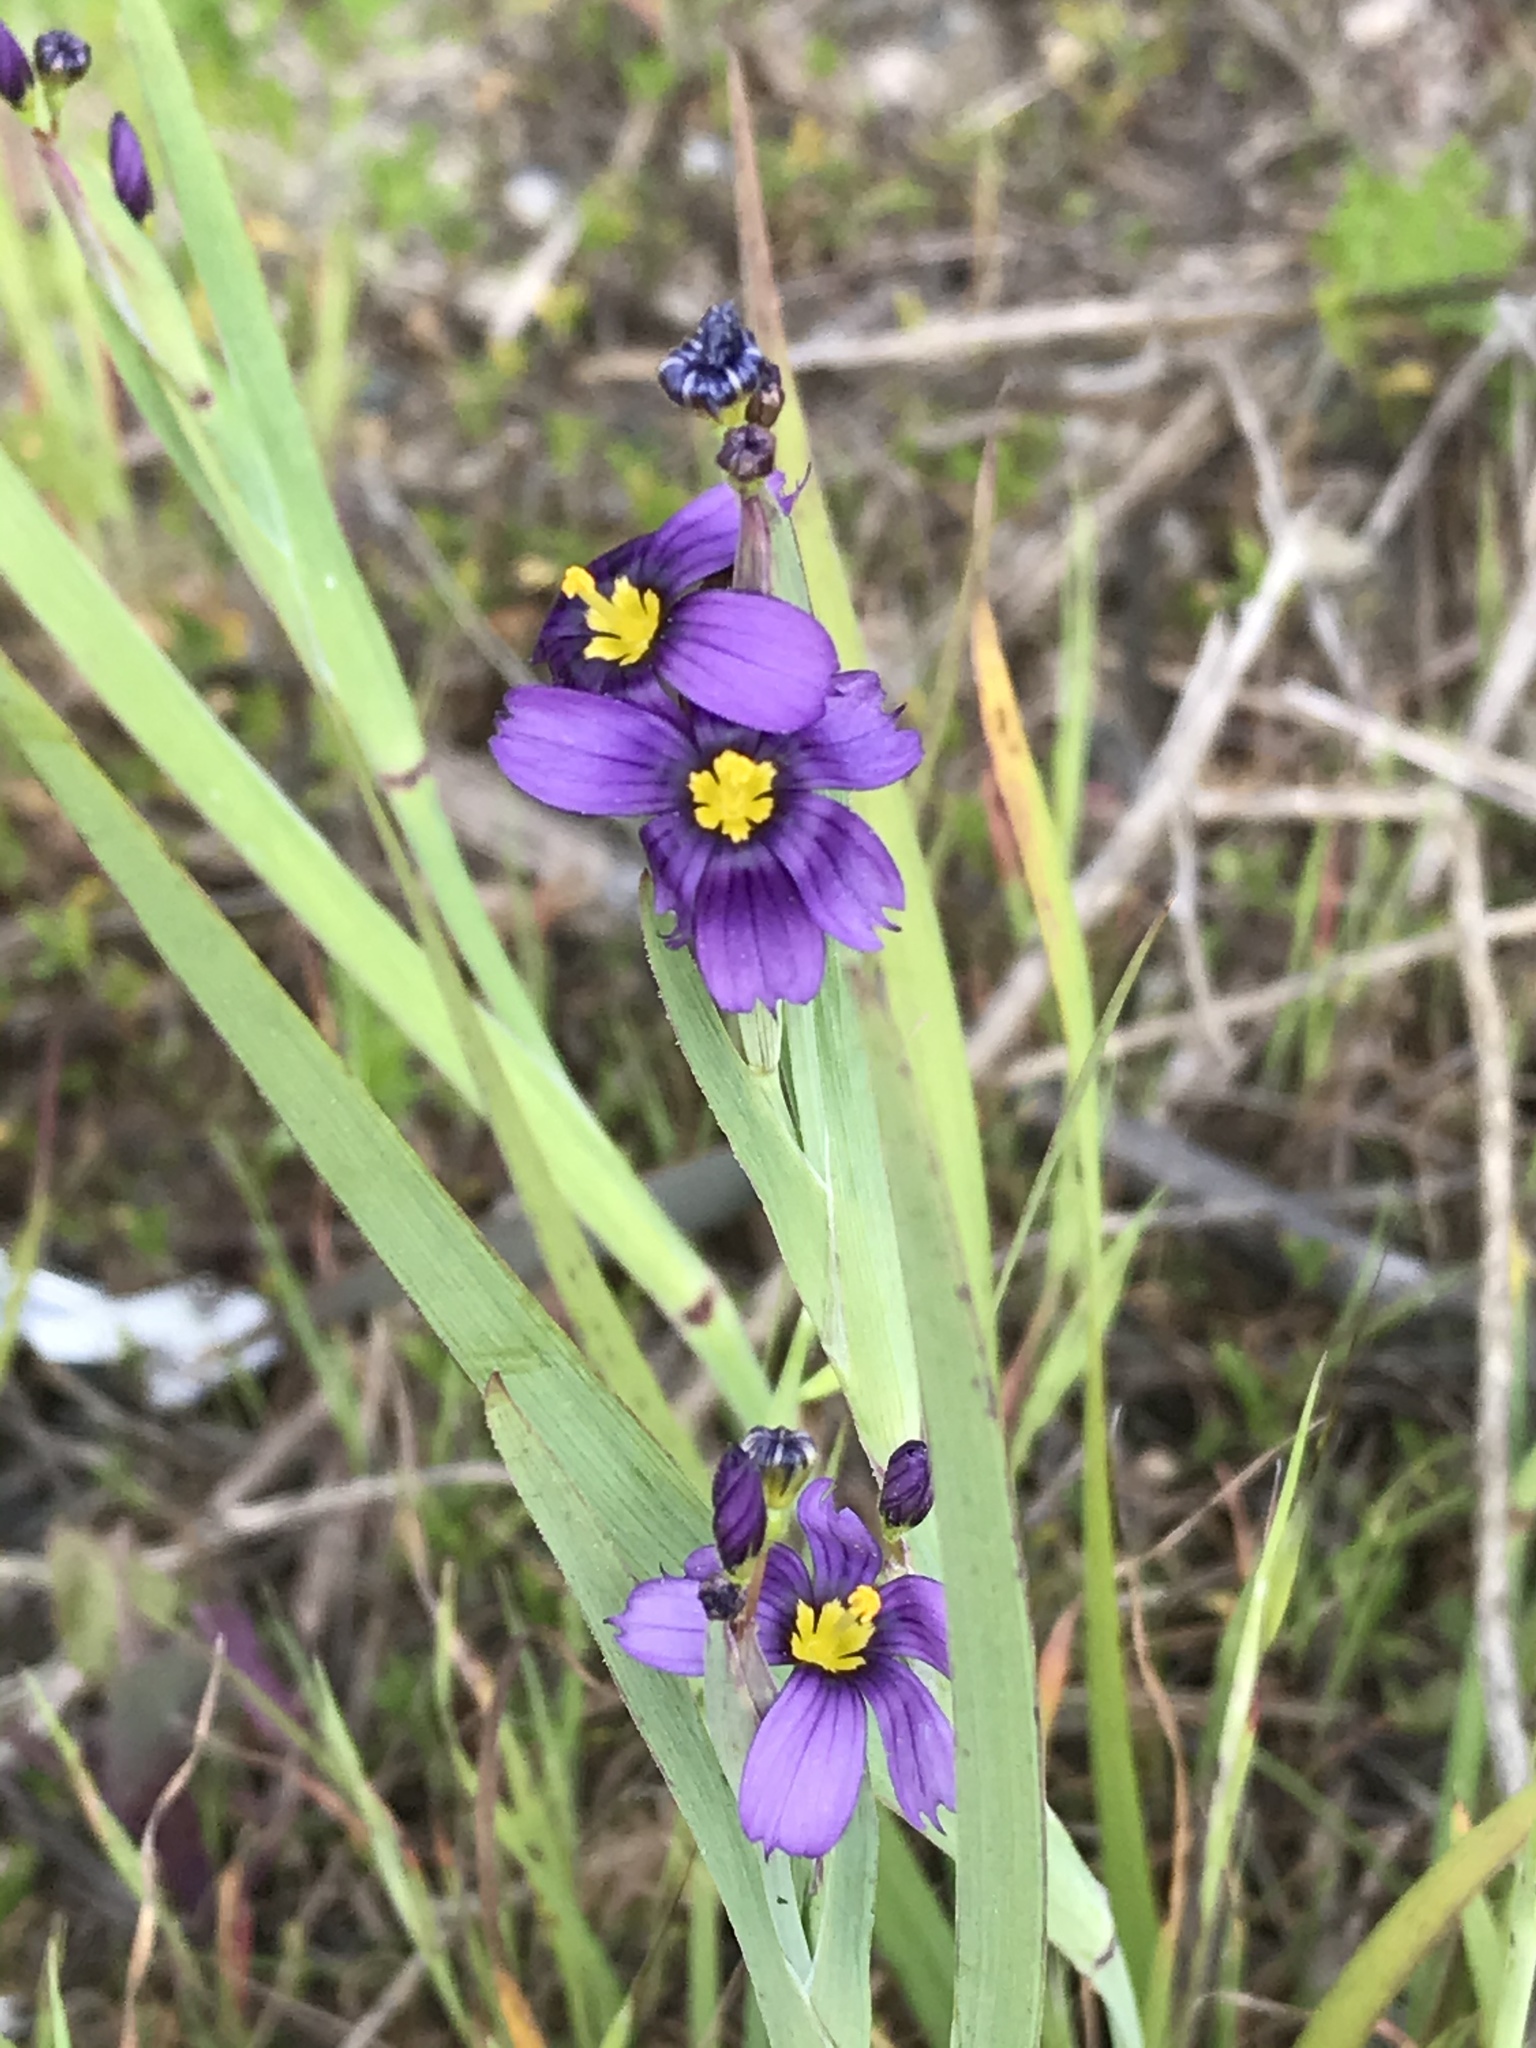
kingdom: Plantae
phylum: Tracheophyta
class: Liliopsida
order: Asparagales
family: Iridaceae
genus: Sisyrinchium
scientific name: Sisyrinchium bellum
